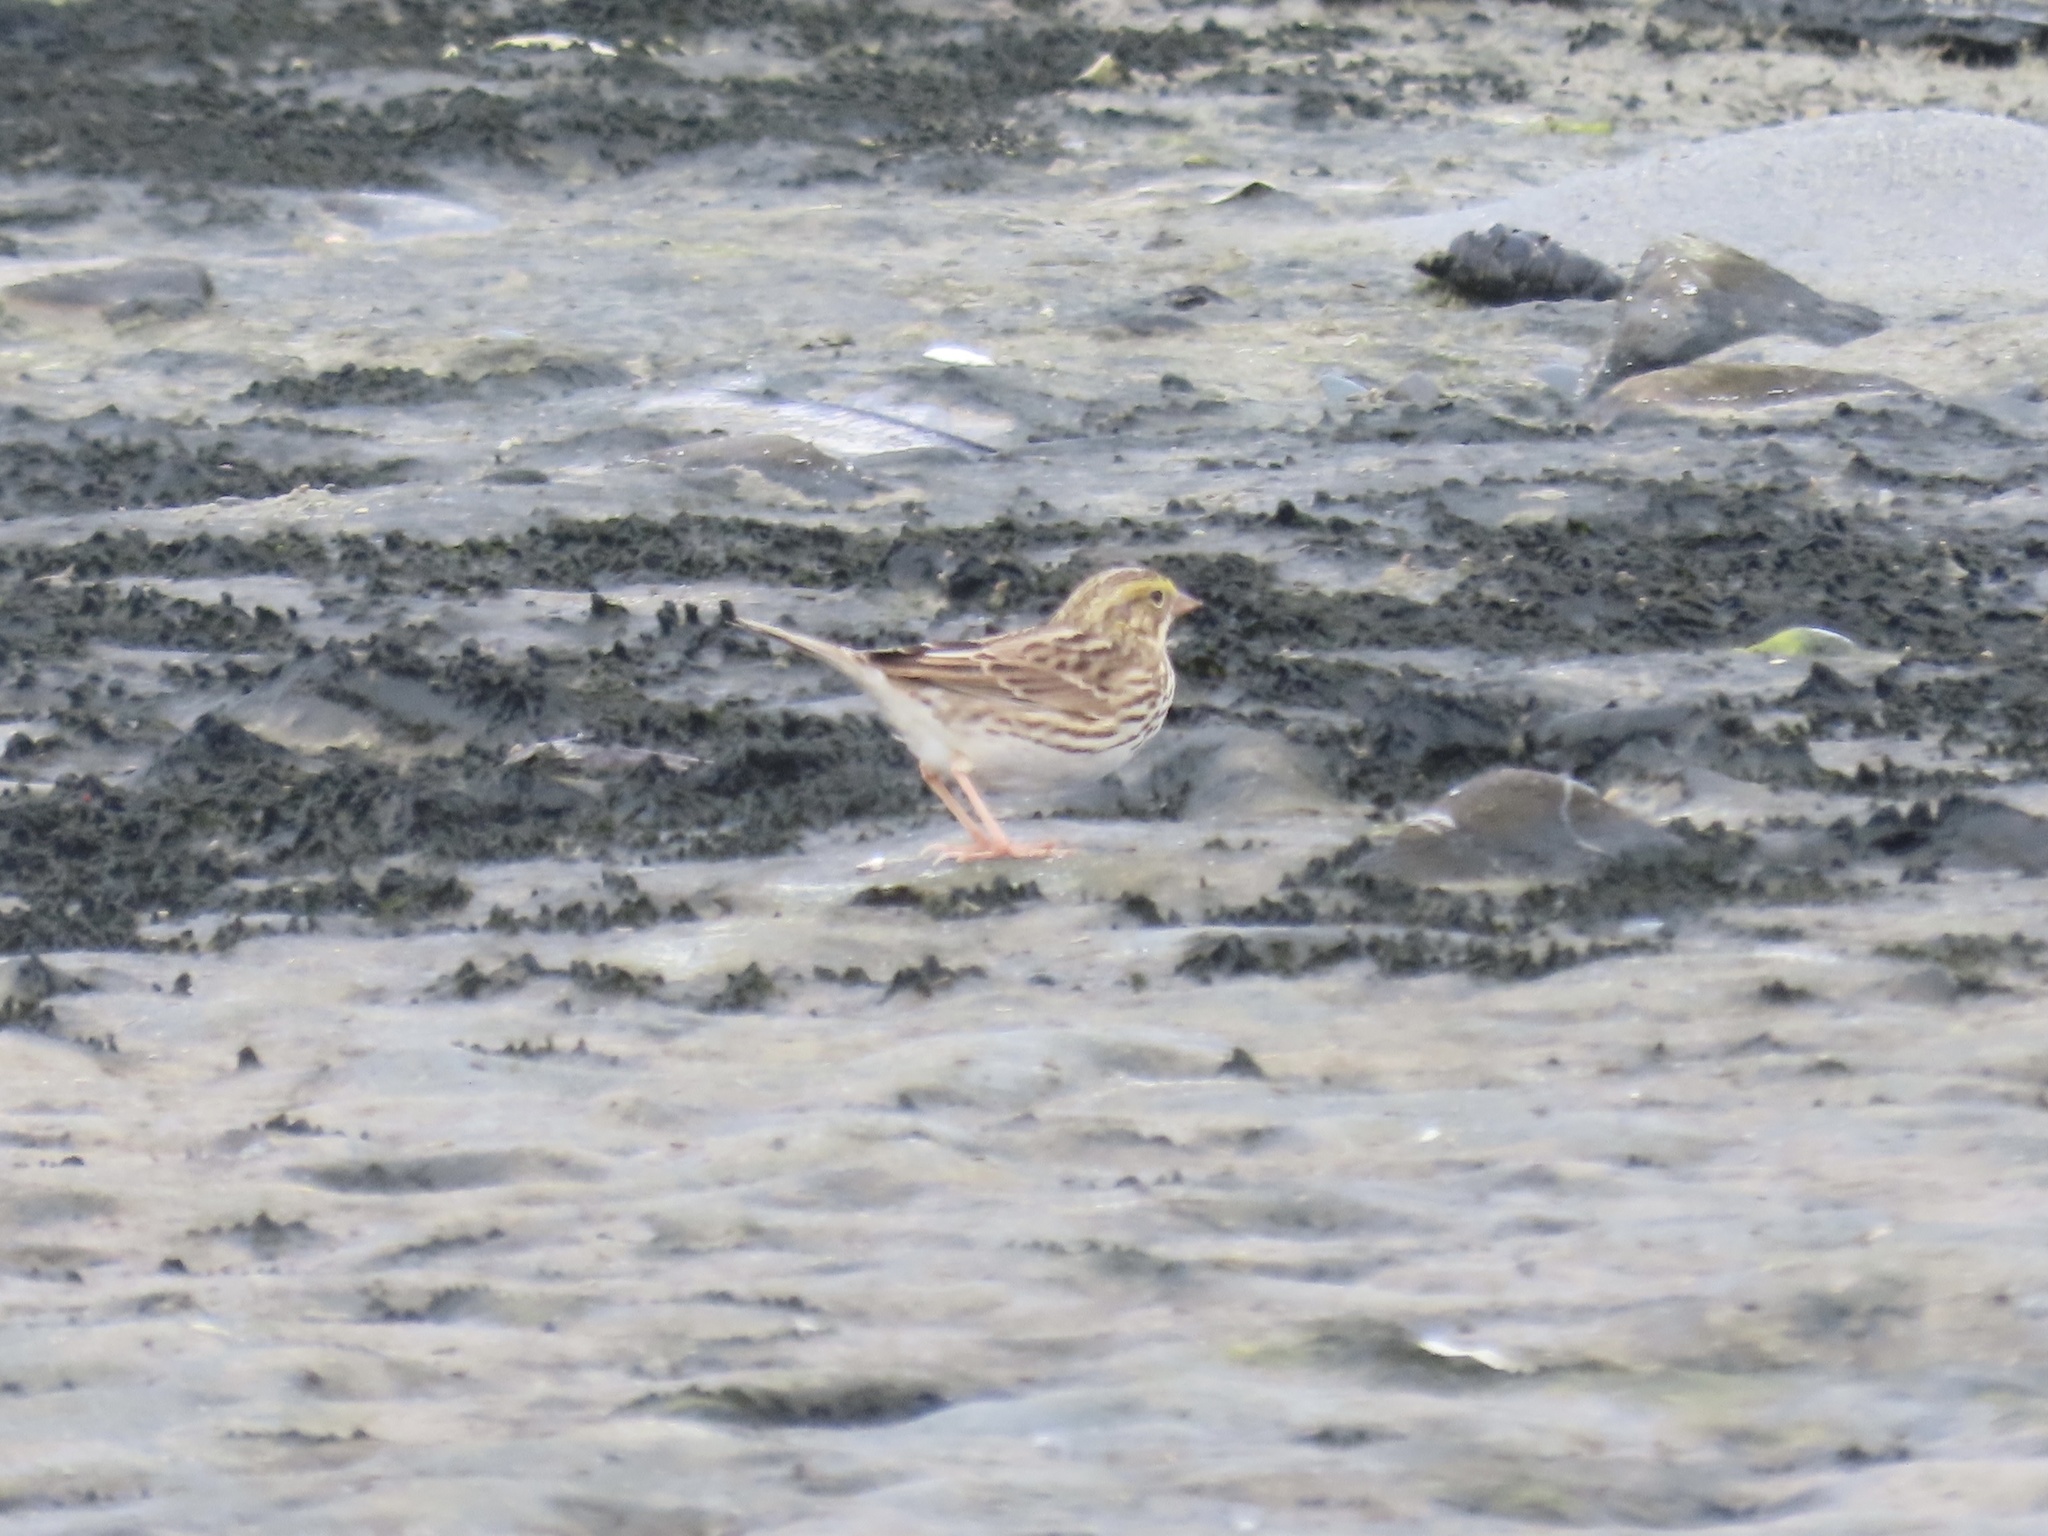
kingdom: Animalia
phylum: Chordata
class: Aves
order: Passeriformes
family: Passerellidae
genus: Passerculus
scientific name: Passerculus sandwichensis
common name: Savannah sparrow
